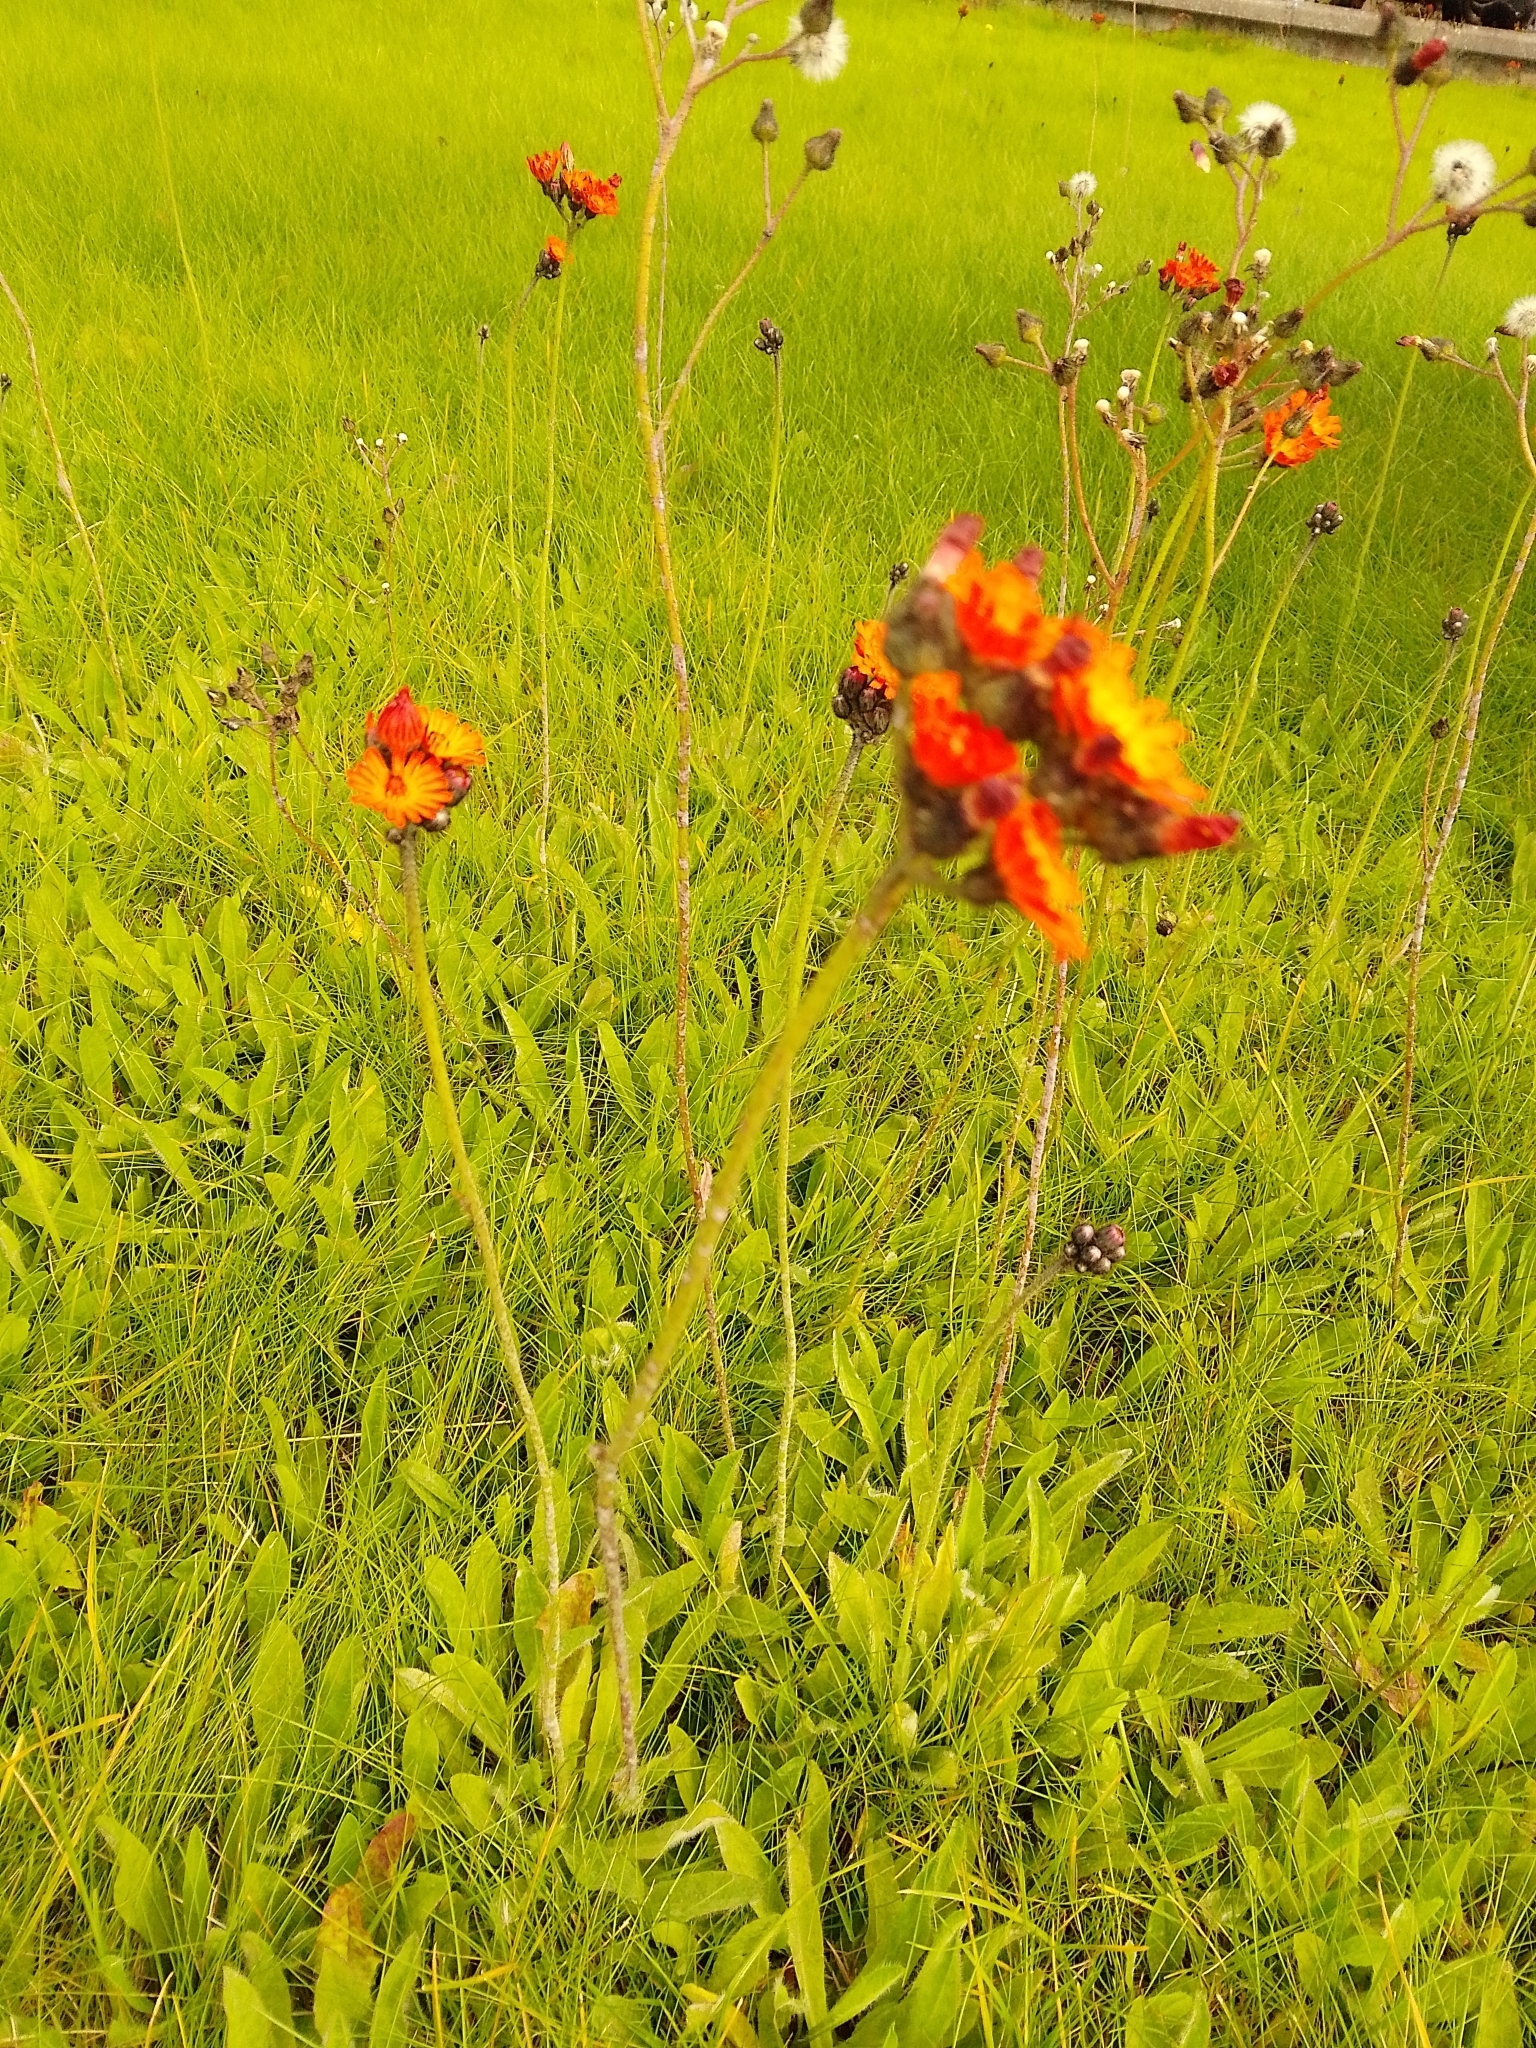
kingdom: Plantae
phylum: Tracheophyta
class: Magnoliopsida
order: Asterales
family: Asteraceae
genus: Pilosella
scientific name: Pilosella aurantiaca
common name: Fox-and-cubs
